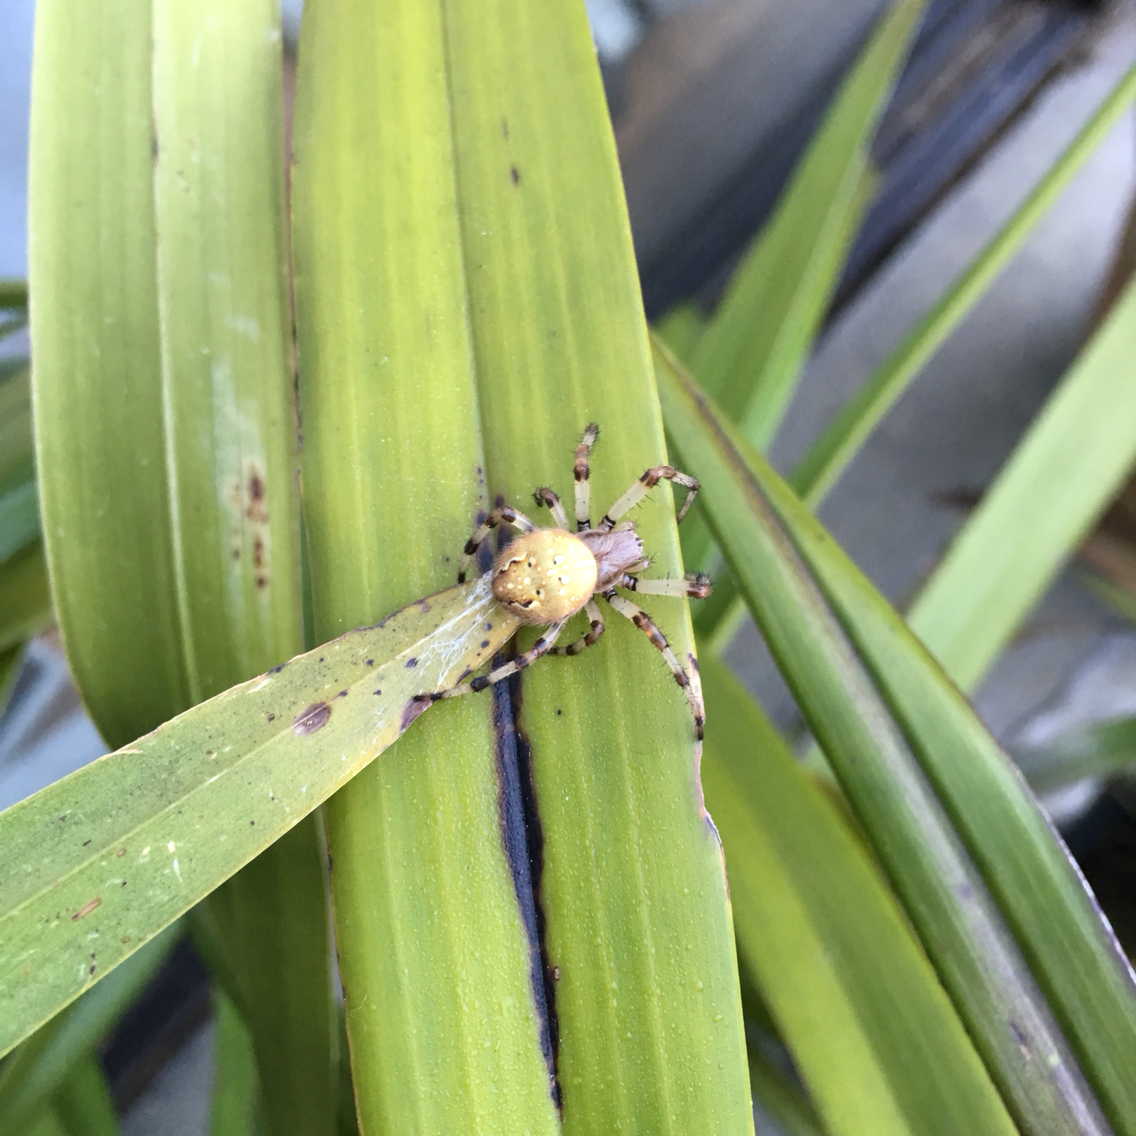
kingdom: Animalia
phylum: Arthropoda
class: Arachnida
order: Araneae
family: Araneidae
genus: Araneus
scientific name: Araneus trifolium
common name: Shamrock orbweaver
